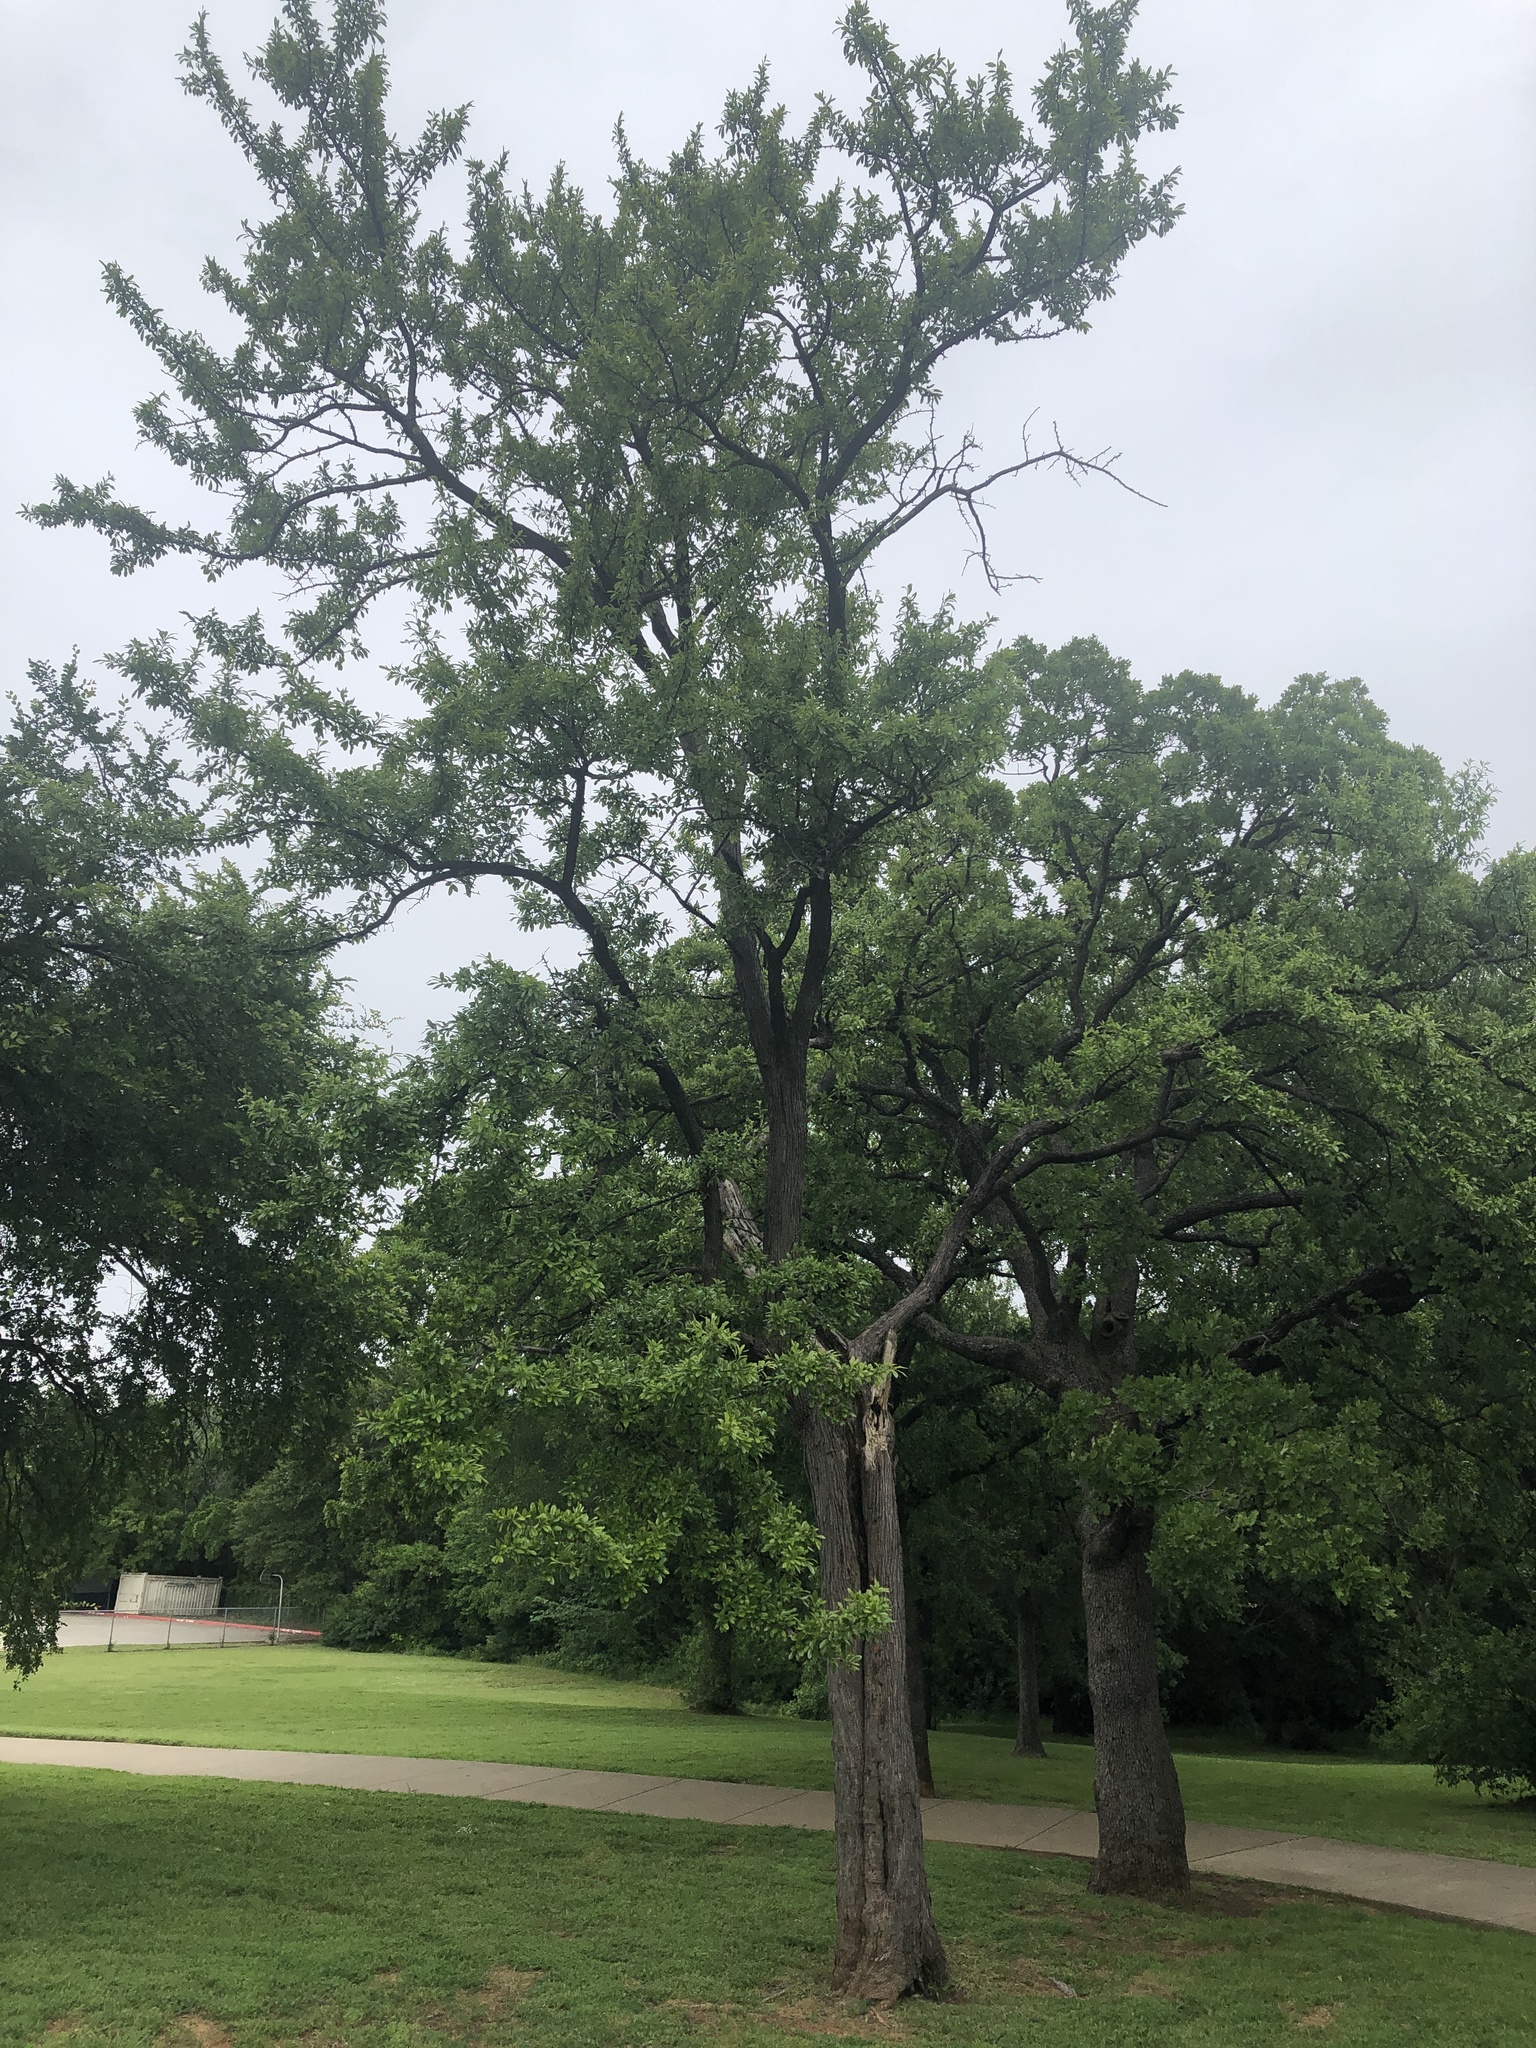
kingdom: Plantae
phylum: Tracheophyta
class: Magnoliopsida
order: Ericales
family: Sapotaceae
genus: Sideroxylon
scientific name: Sideroxylon lanuginosum
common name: Chittamwood
